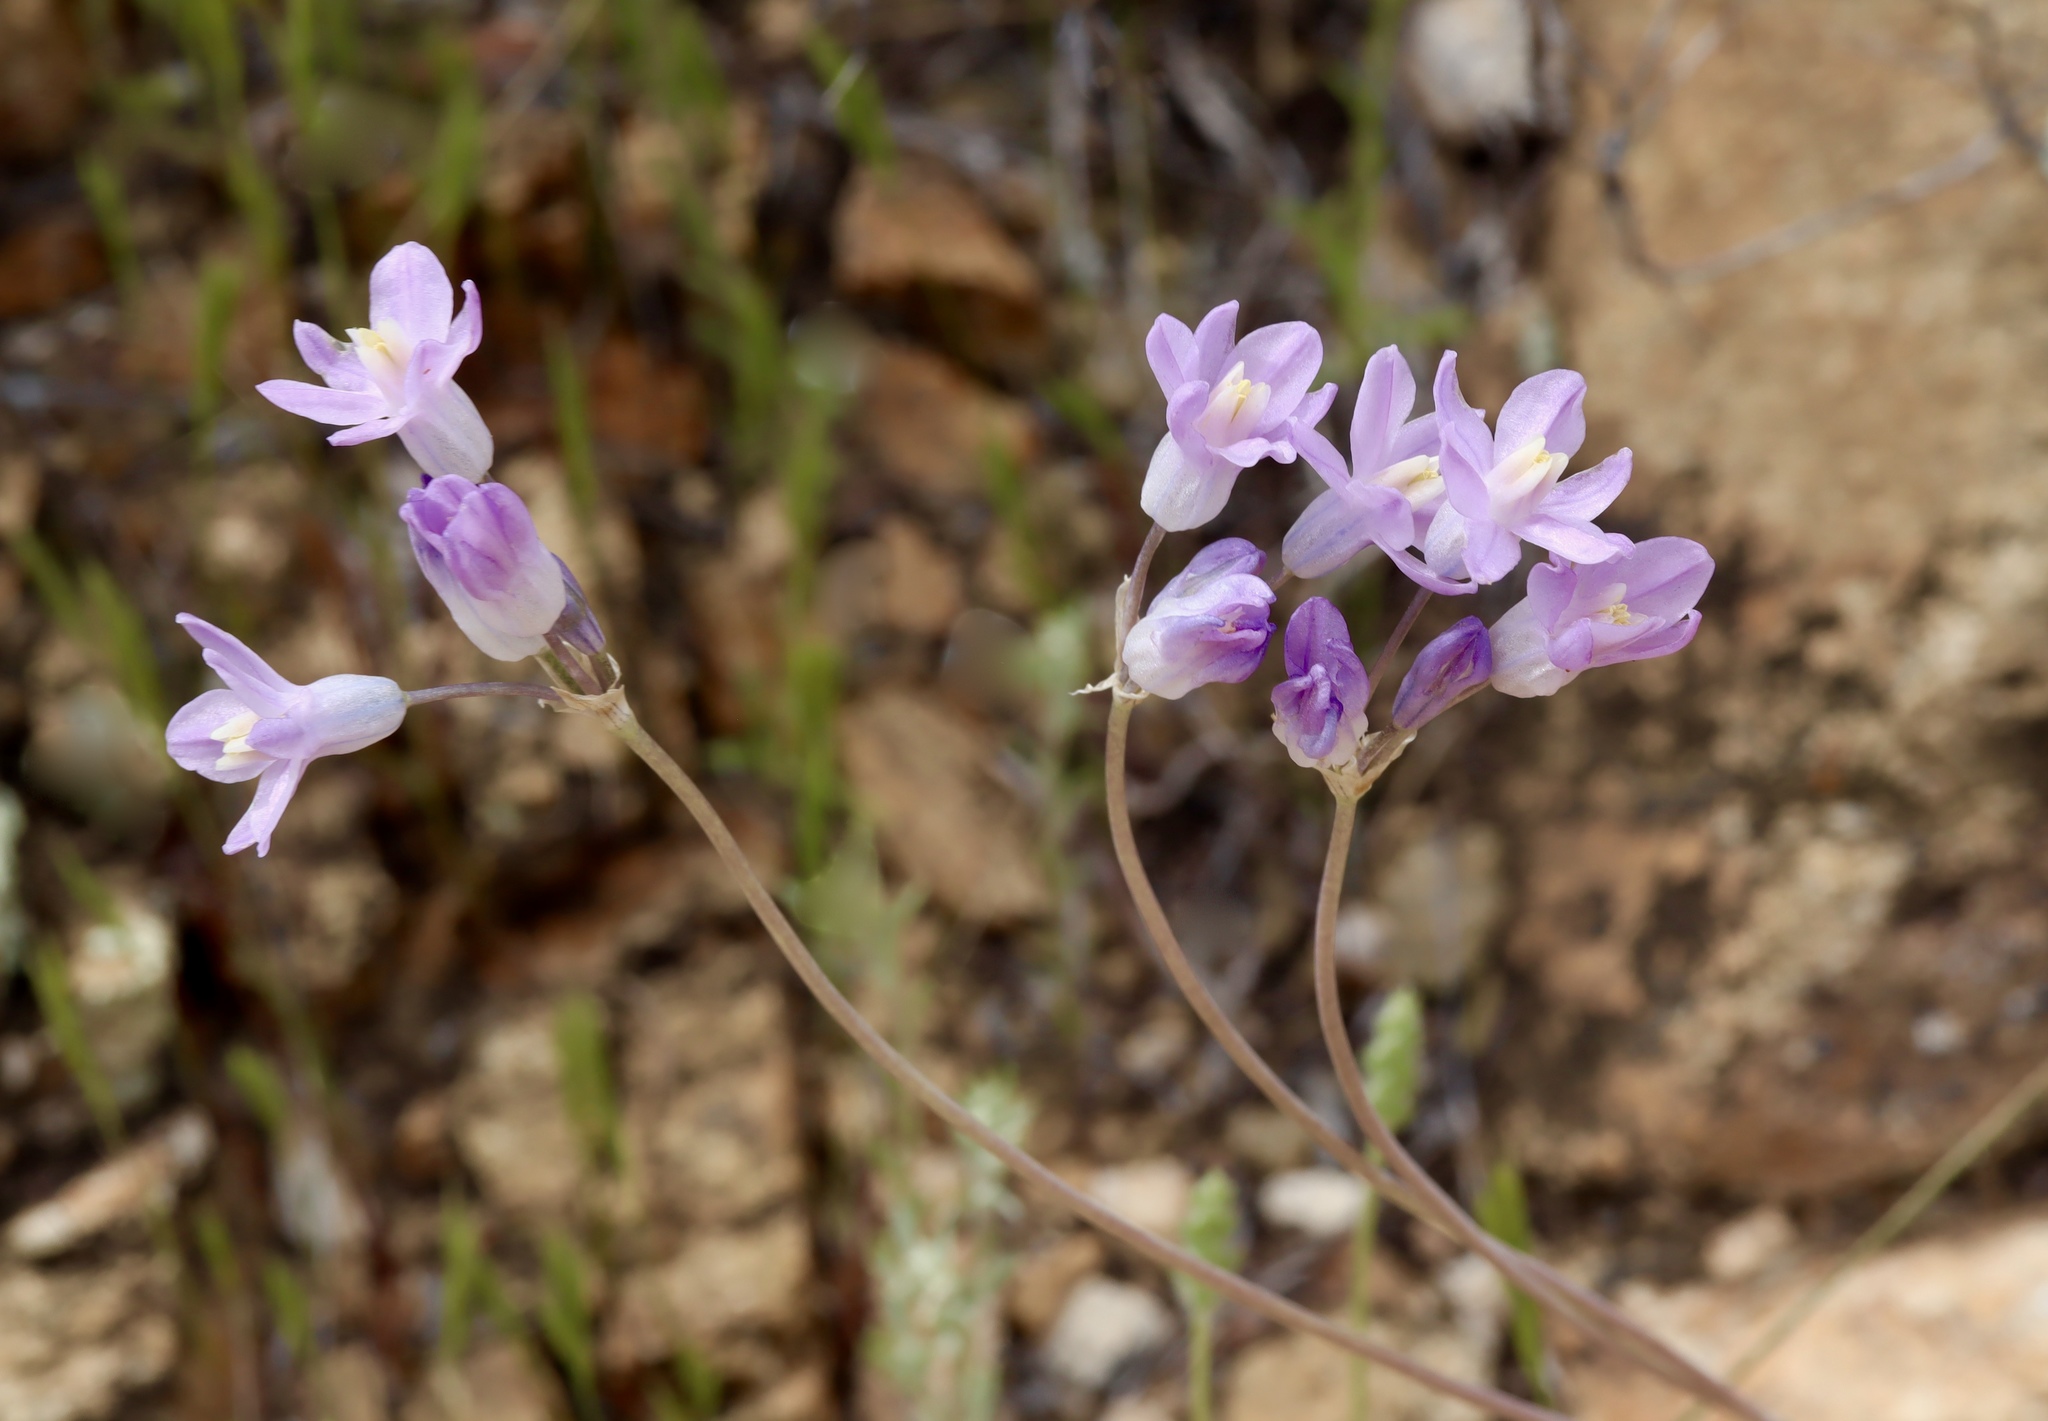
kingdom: Plantae
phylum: Tracheophyta
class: Liliopsida
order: Asparagales
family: Asparagaceae
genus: Dipterostemon
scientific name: Dipterostemon capitatus
